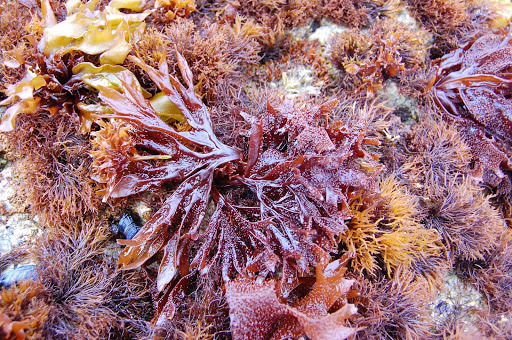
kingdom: Plantae
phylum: Rhodophyta
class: Florideophyceae
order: Gigartinales
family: Phyllophoraceae
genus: Mastocarpus
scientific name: Mastocarpus papillatus
